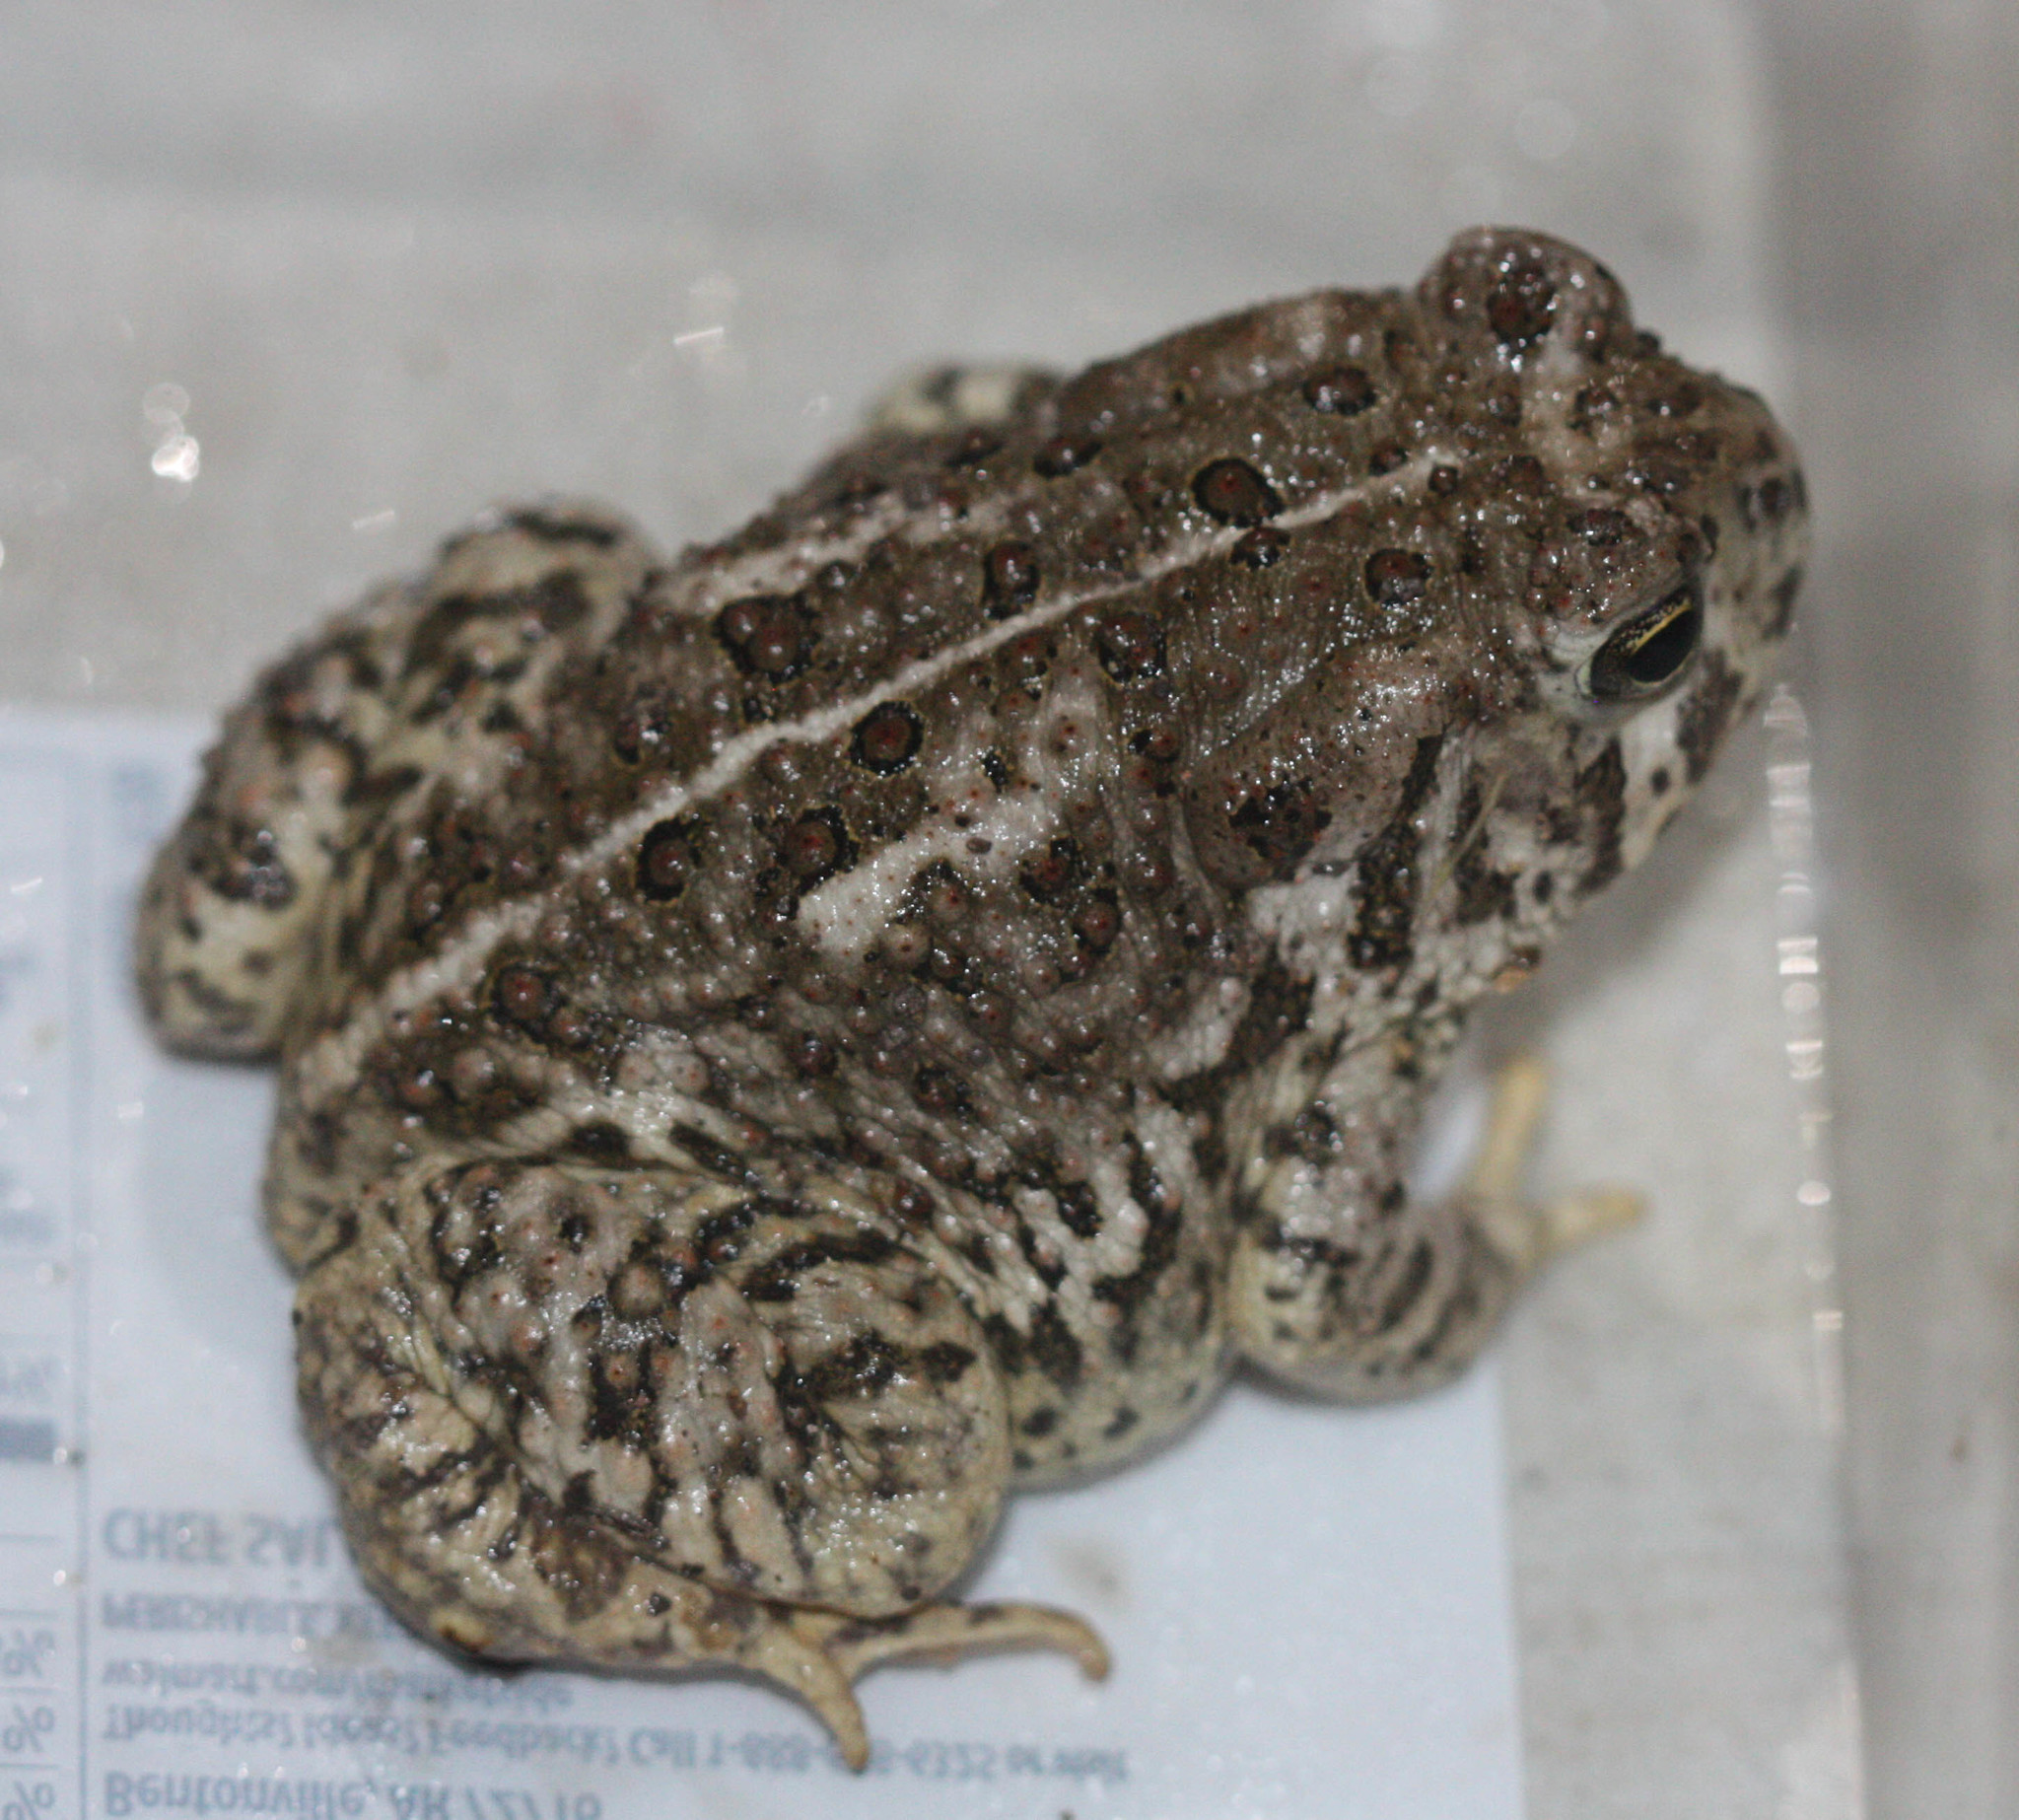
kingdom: Animalia
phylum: Chordata
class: Amphibia
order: Anura
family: Bufonidae
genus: Anaxyrus
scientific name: Anaxyrus woodhousii
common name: Woodhouse's toad
